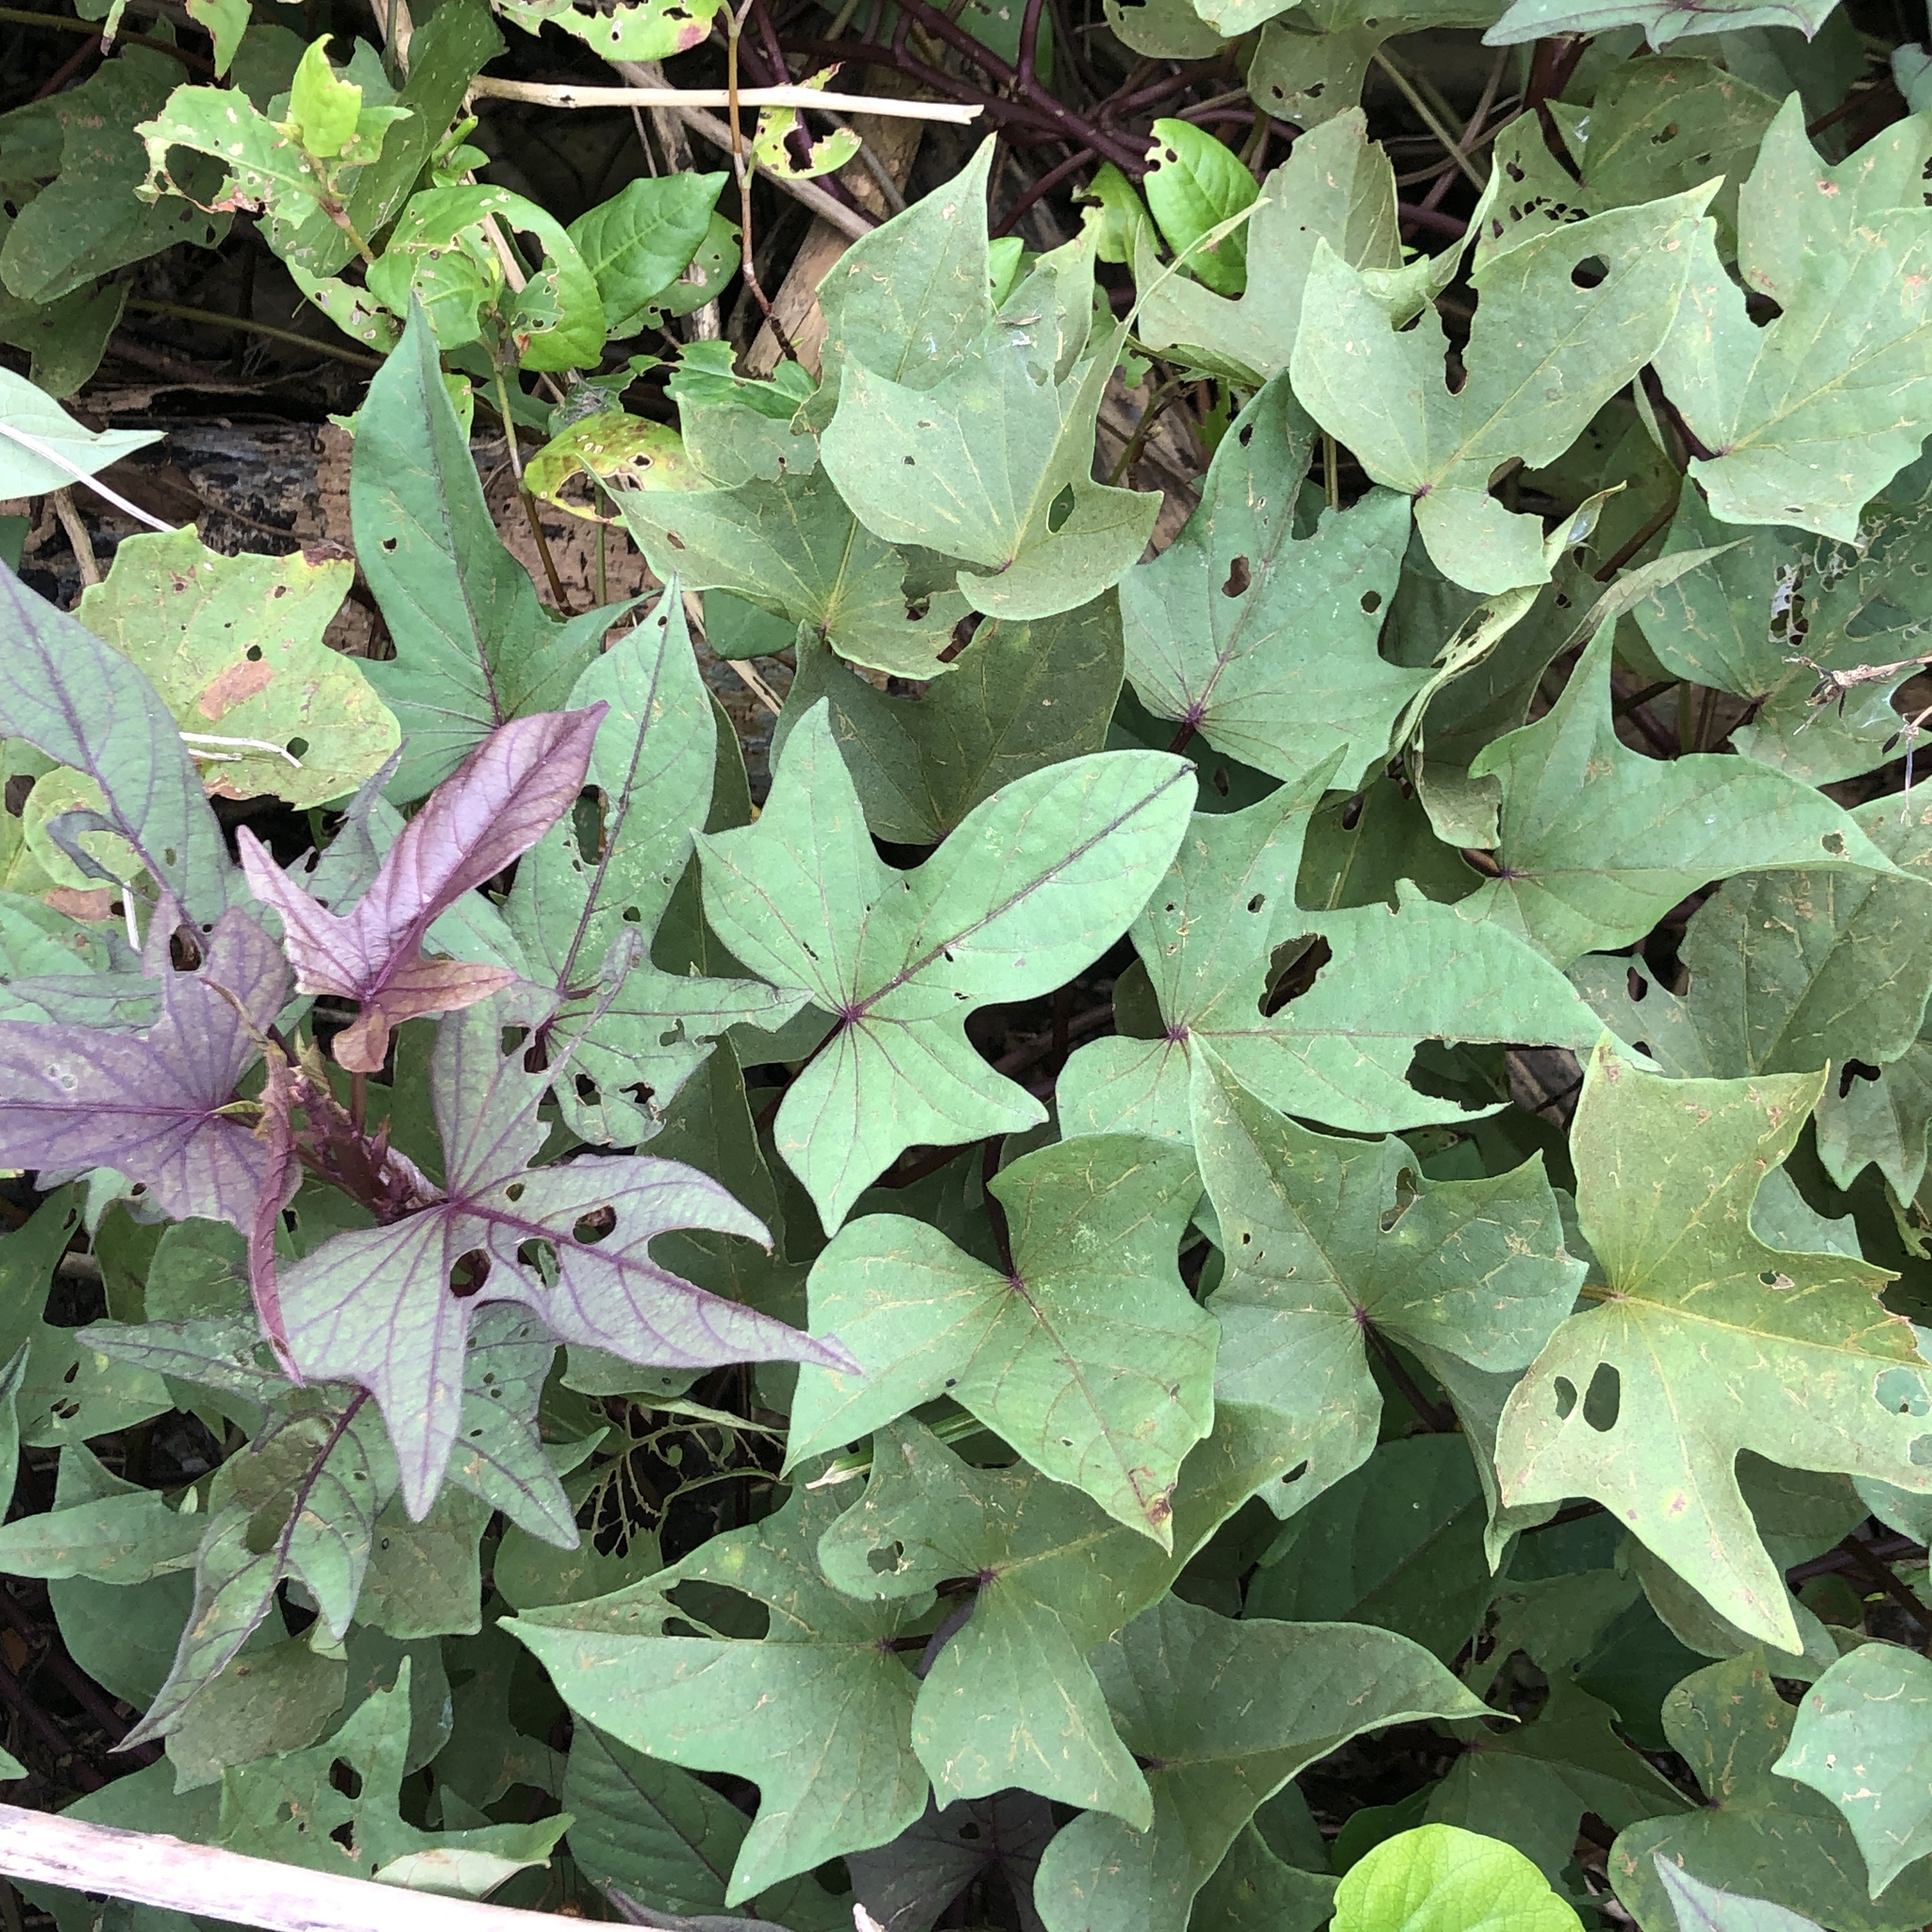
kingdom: Plantae
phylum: Tracheophyta
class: Magnoliopsida
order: Solanales
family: Convolvulaceae
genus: Ipomoea
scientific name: Ipomoea batatas
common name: Sweet-potato
